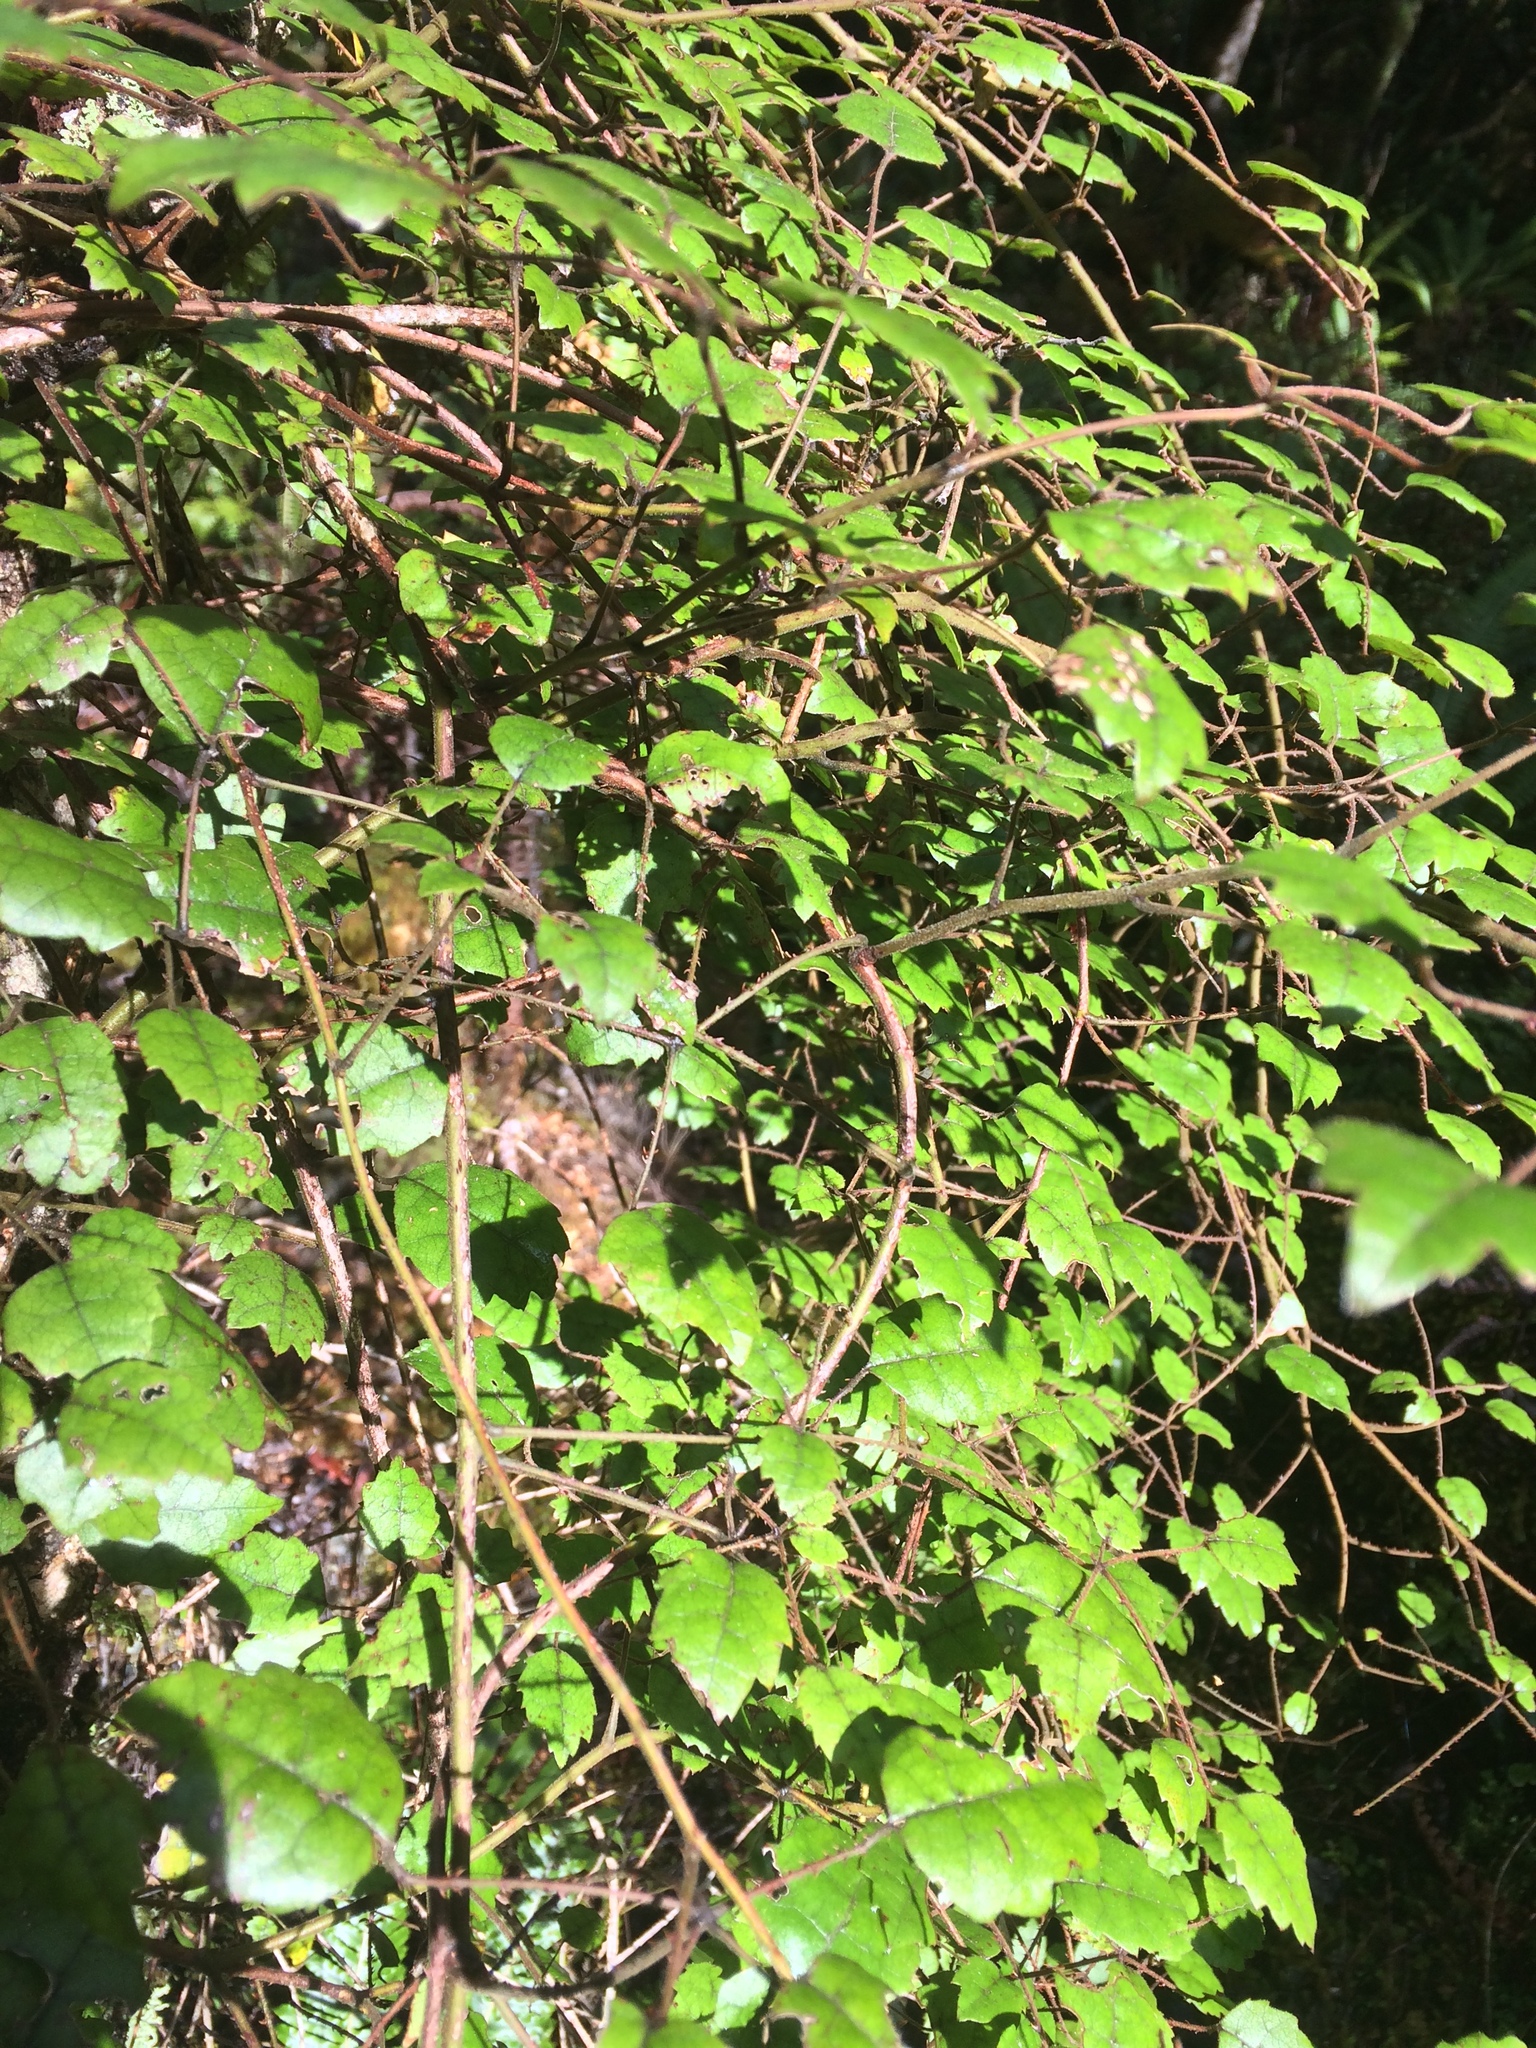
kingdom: Plantae
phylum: Tracheophyta
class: Magnoliopsida
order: Rosales
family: Rosaceae
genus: Rubus
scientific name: Rubus australis
